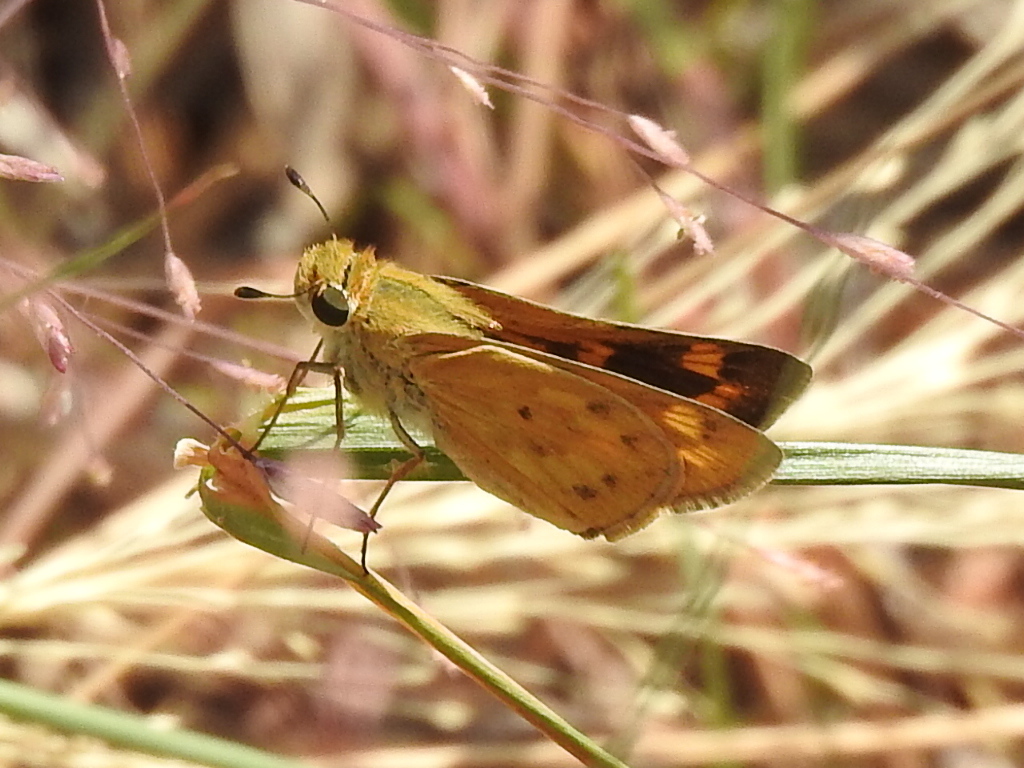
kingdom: Animalia
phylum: Arthropoda
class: Insecta
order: Lepidoptera
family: Hesperiidae
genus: Hylephila
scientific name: Hylephila phyleus
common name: Fiery skipper
